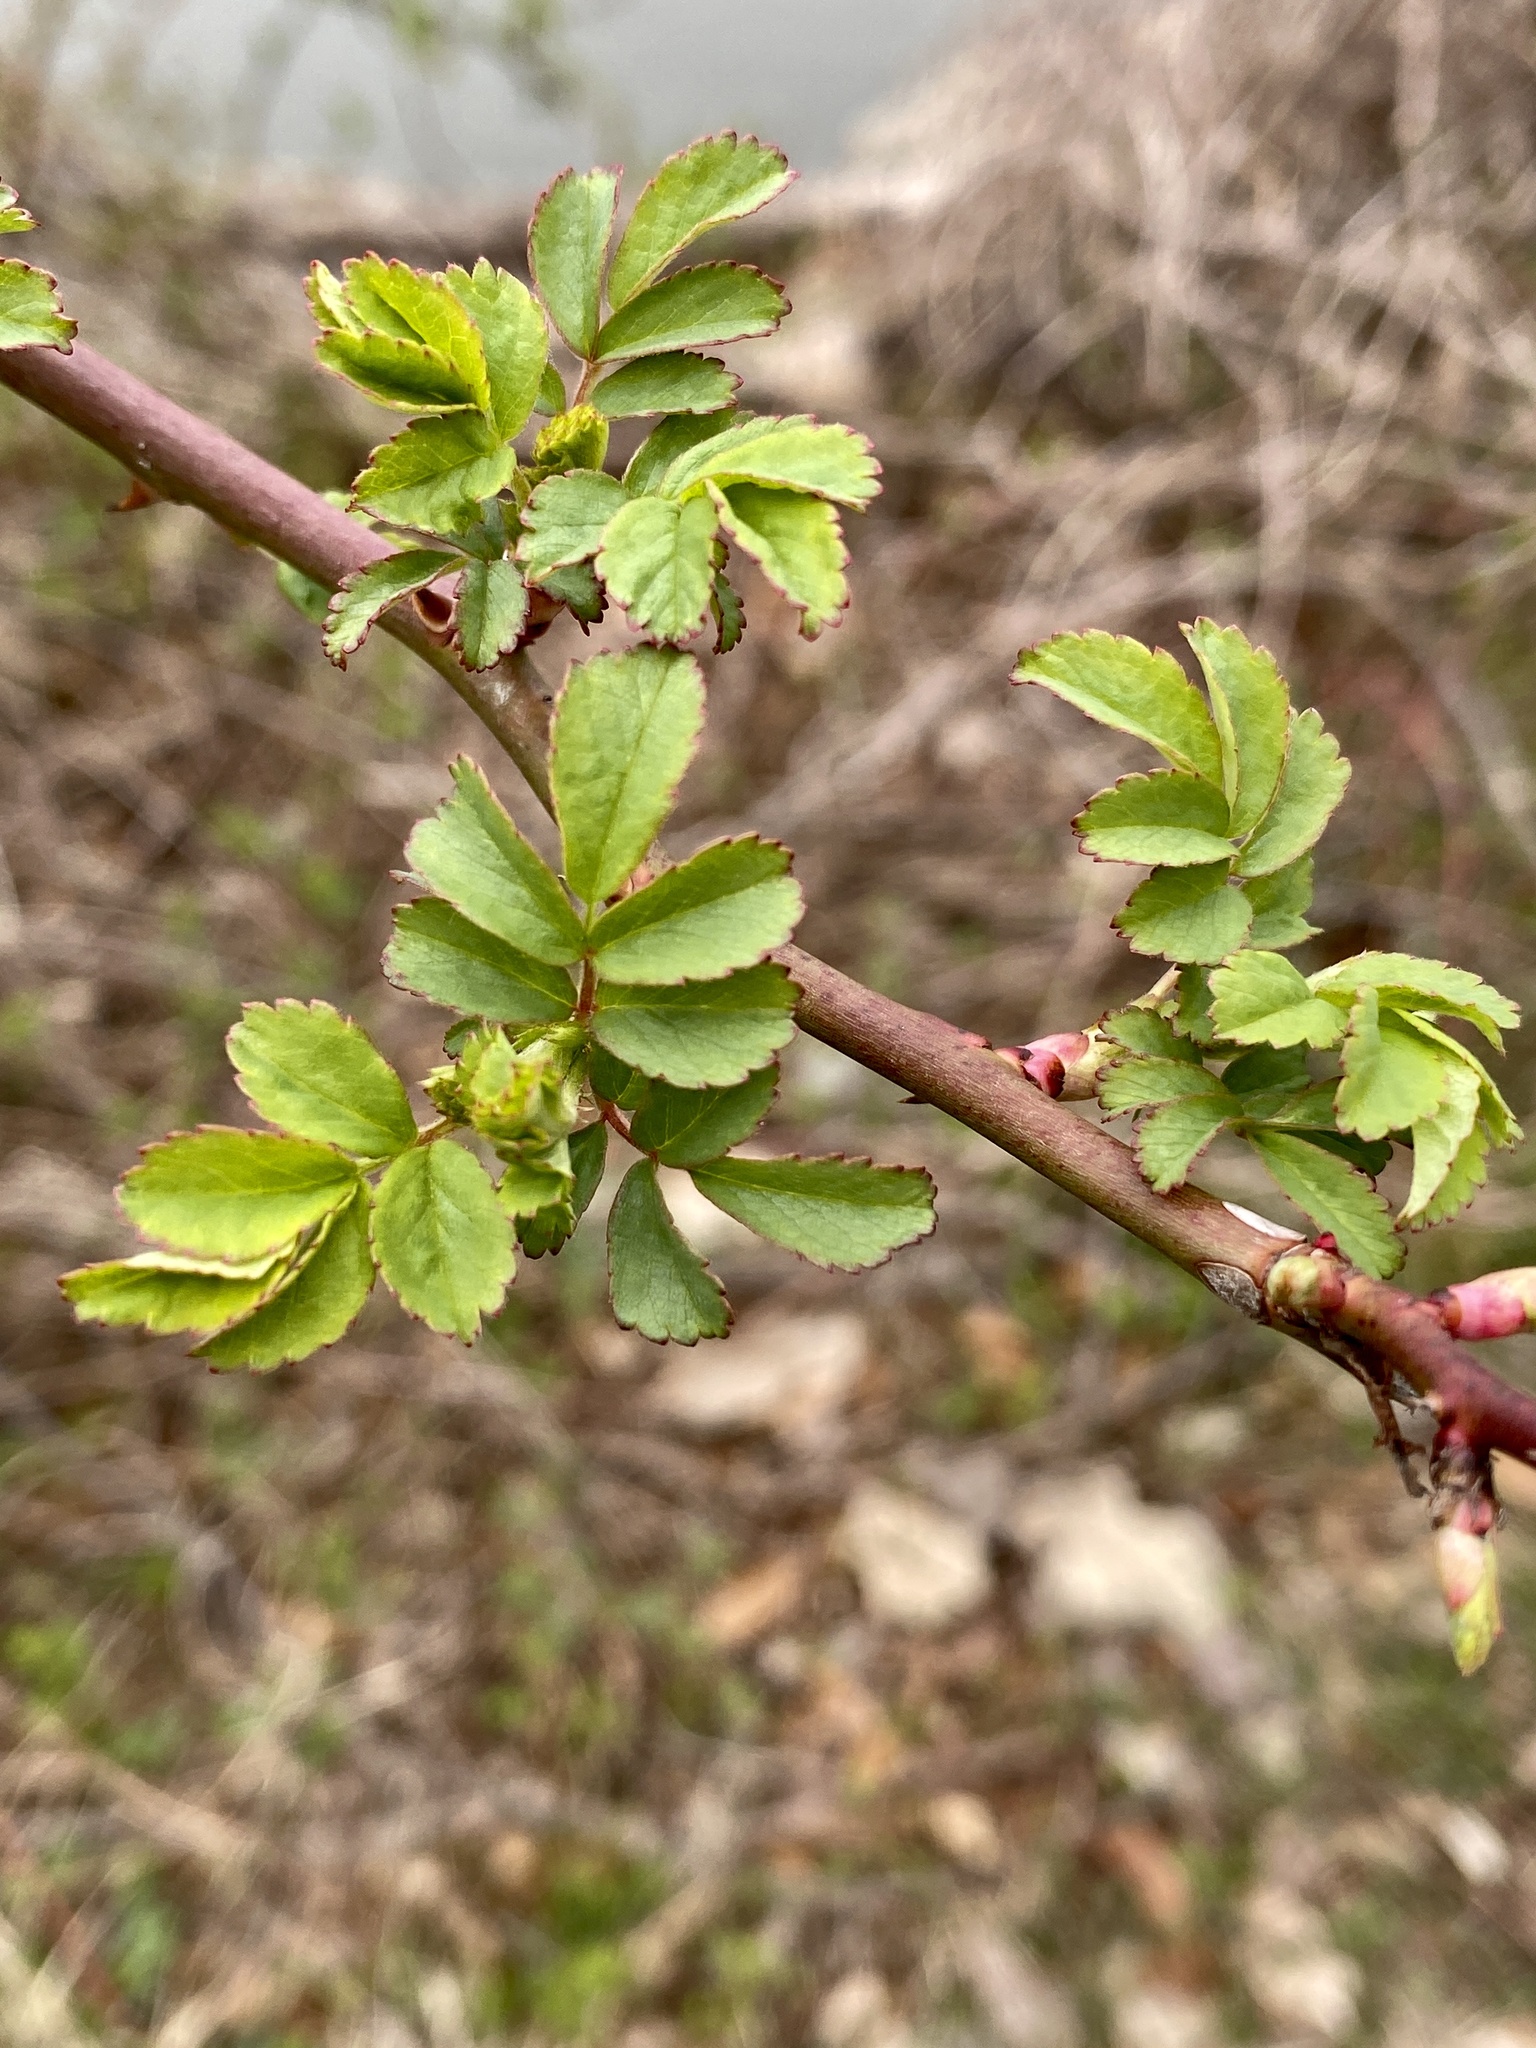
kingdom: Plantae
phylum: Tracheophyta
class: Magnoliopsida
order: Rosales
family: Rosaceae
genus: Rosa
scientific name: Rosa multiflora
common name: Multiflora rose
